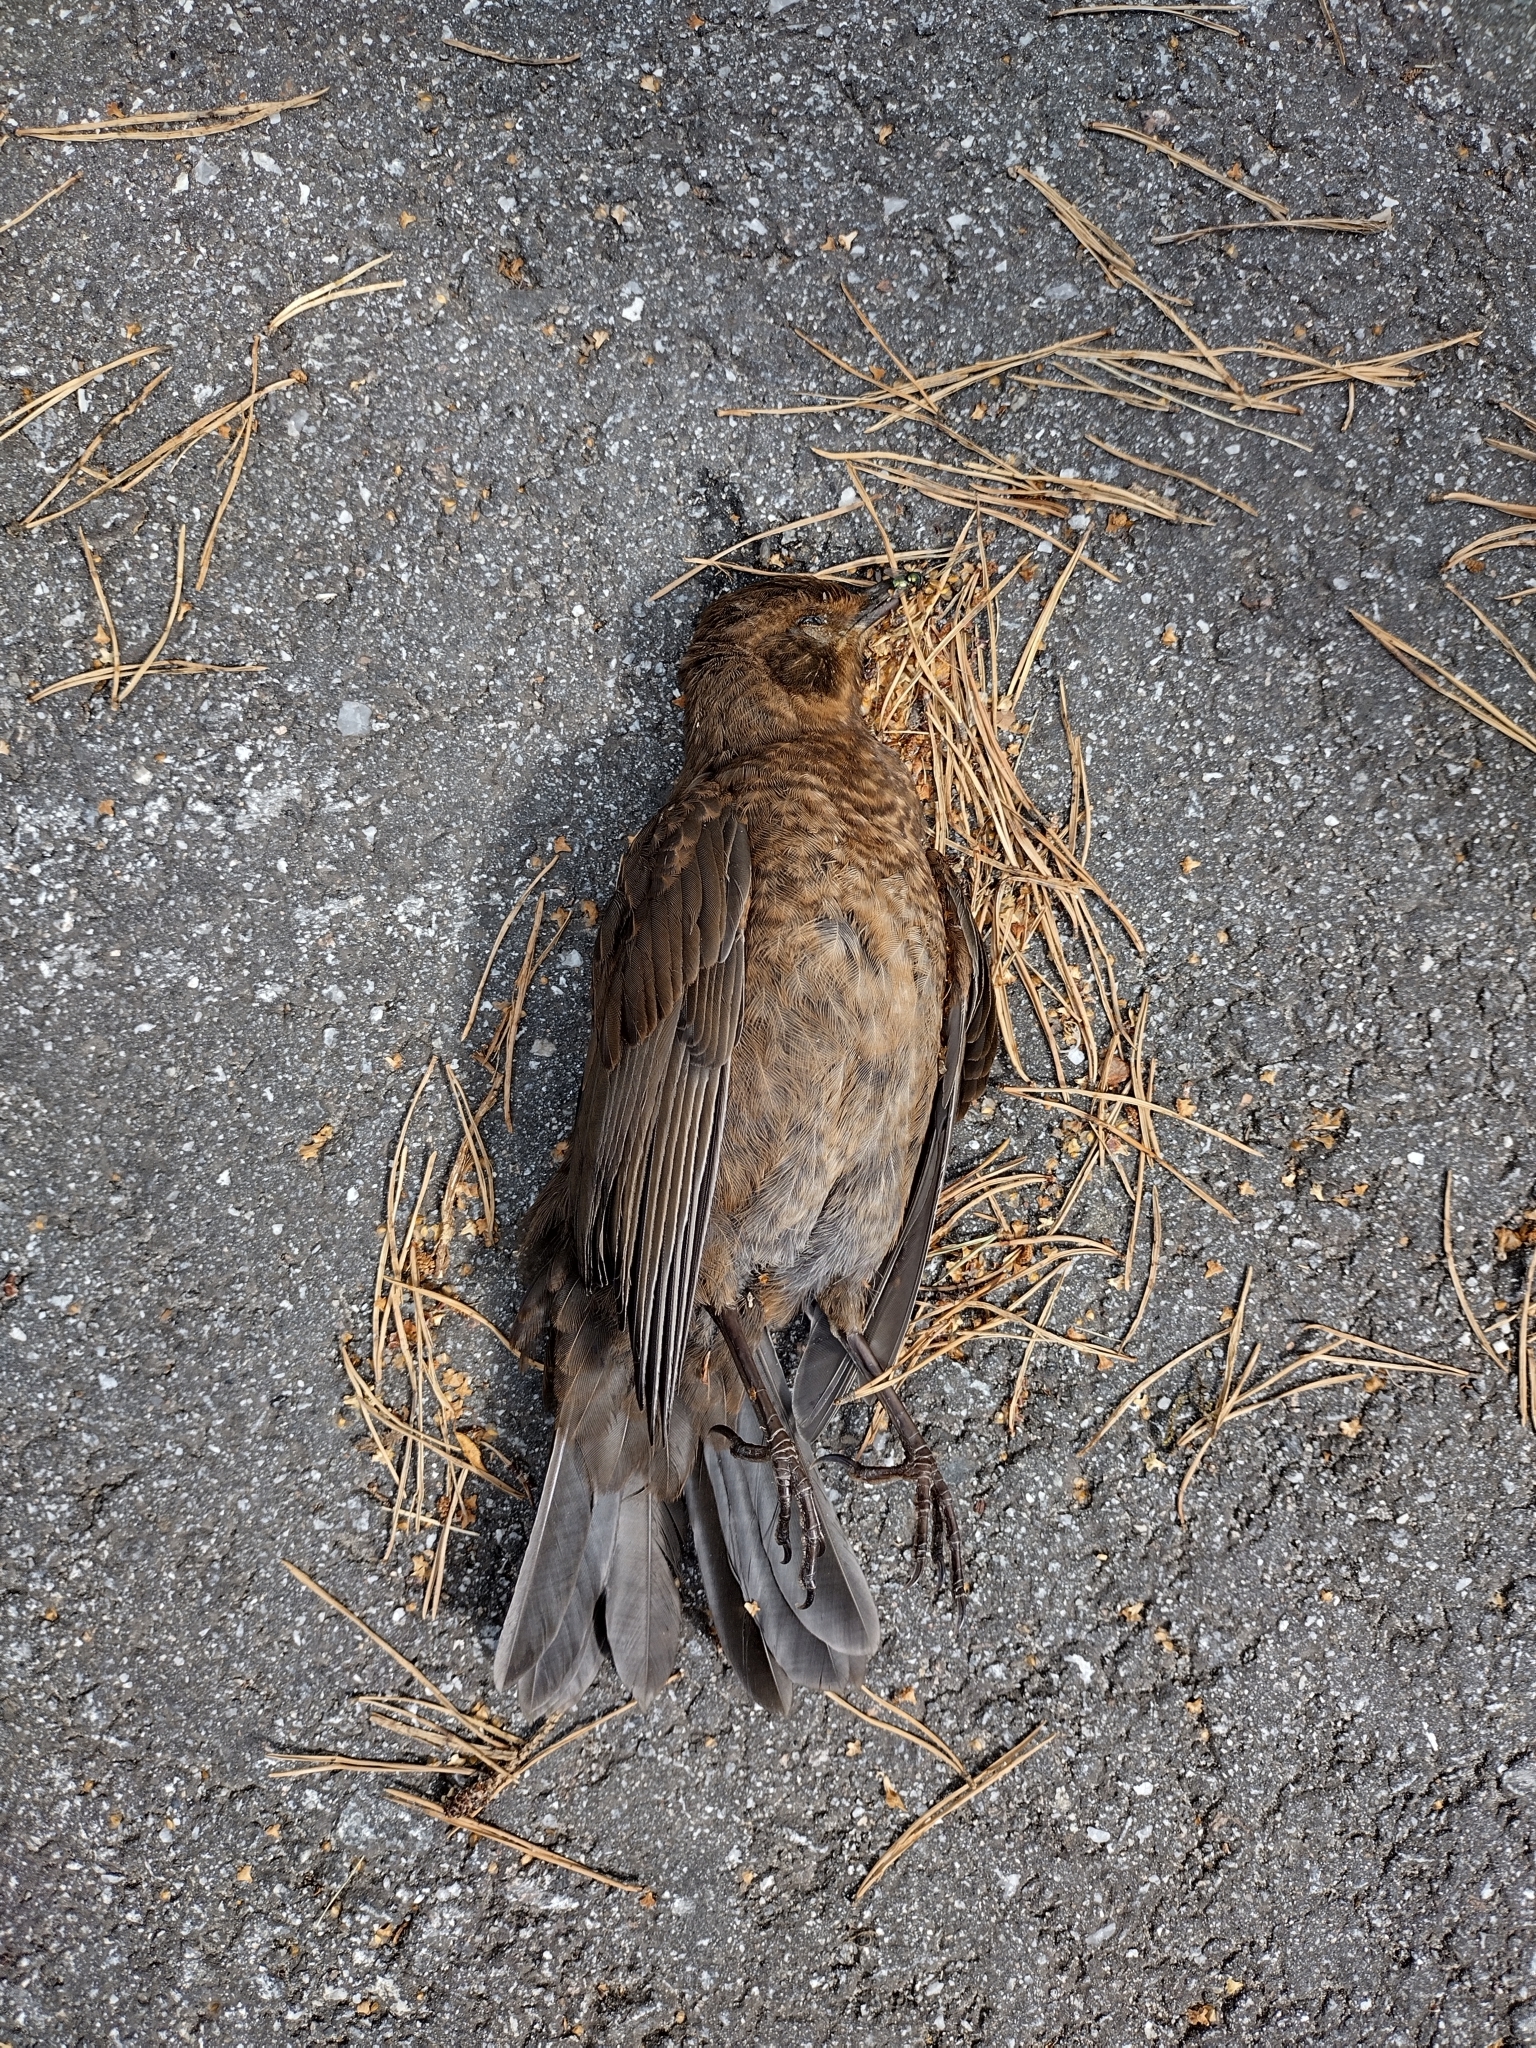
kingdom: Animalia
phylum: Chordata
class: Aves
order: Passeriformes
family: Turdidae
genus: Turdus
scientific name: Turdus merula
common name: Common blackbird
